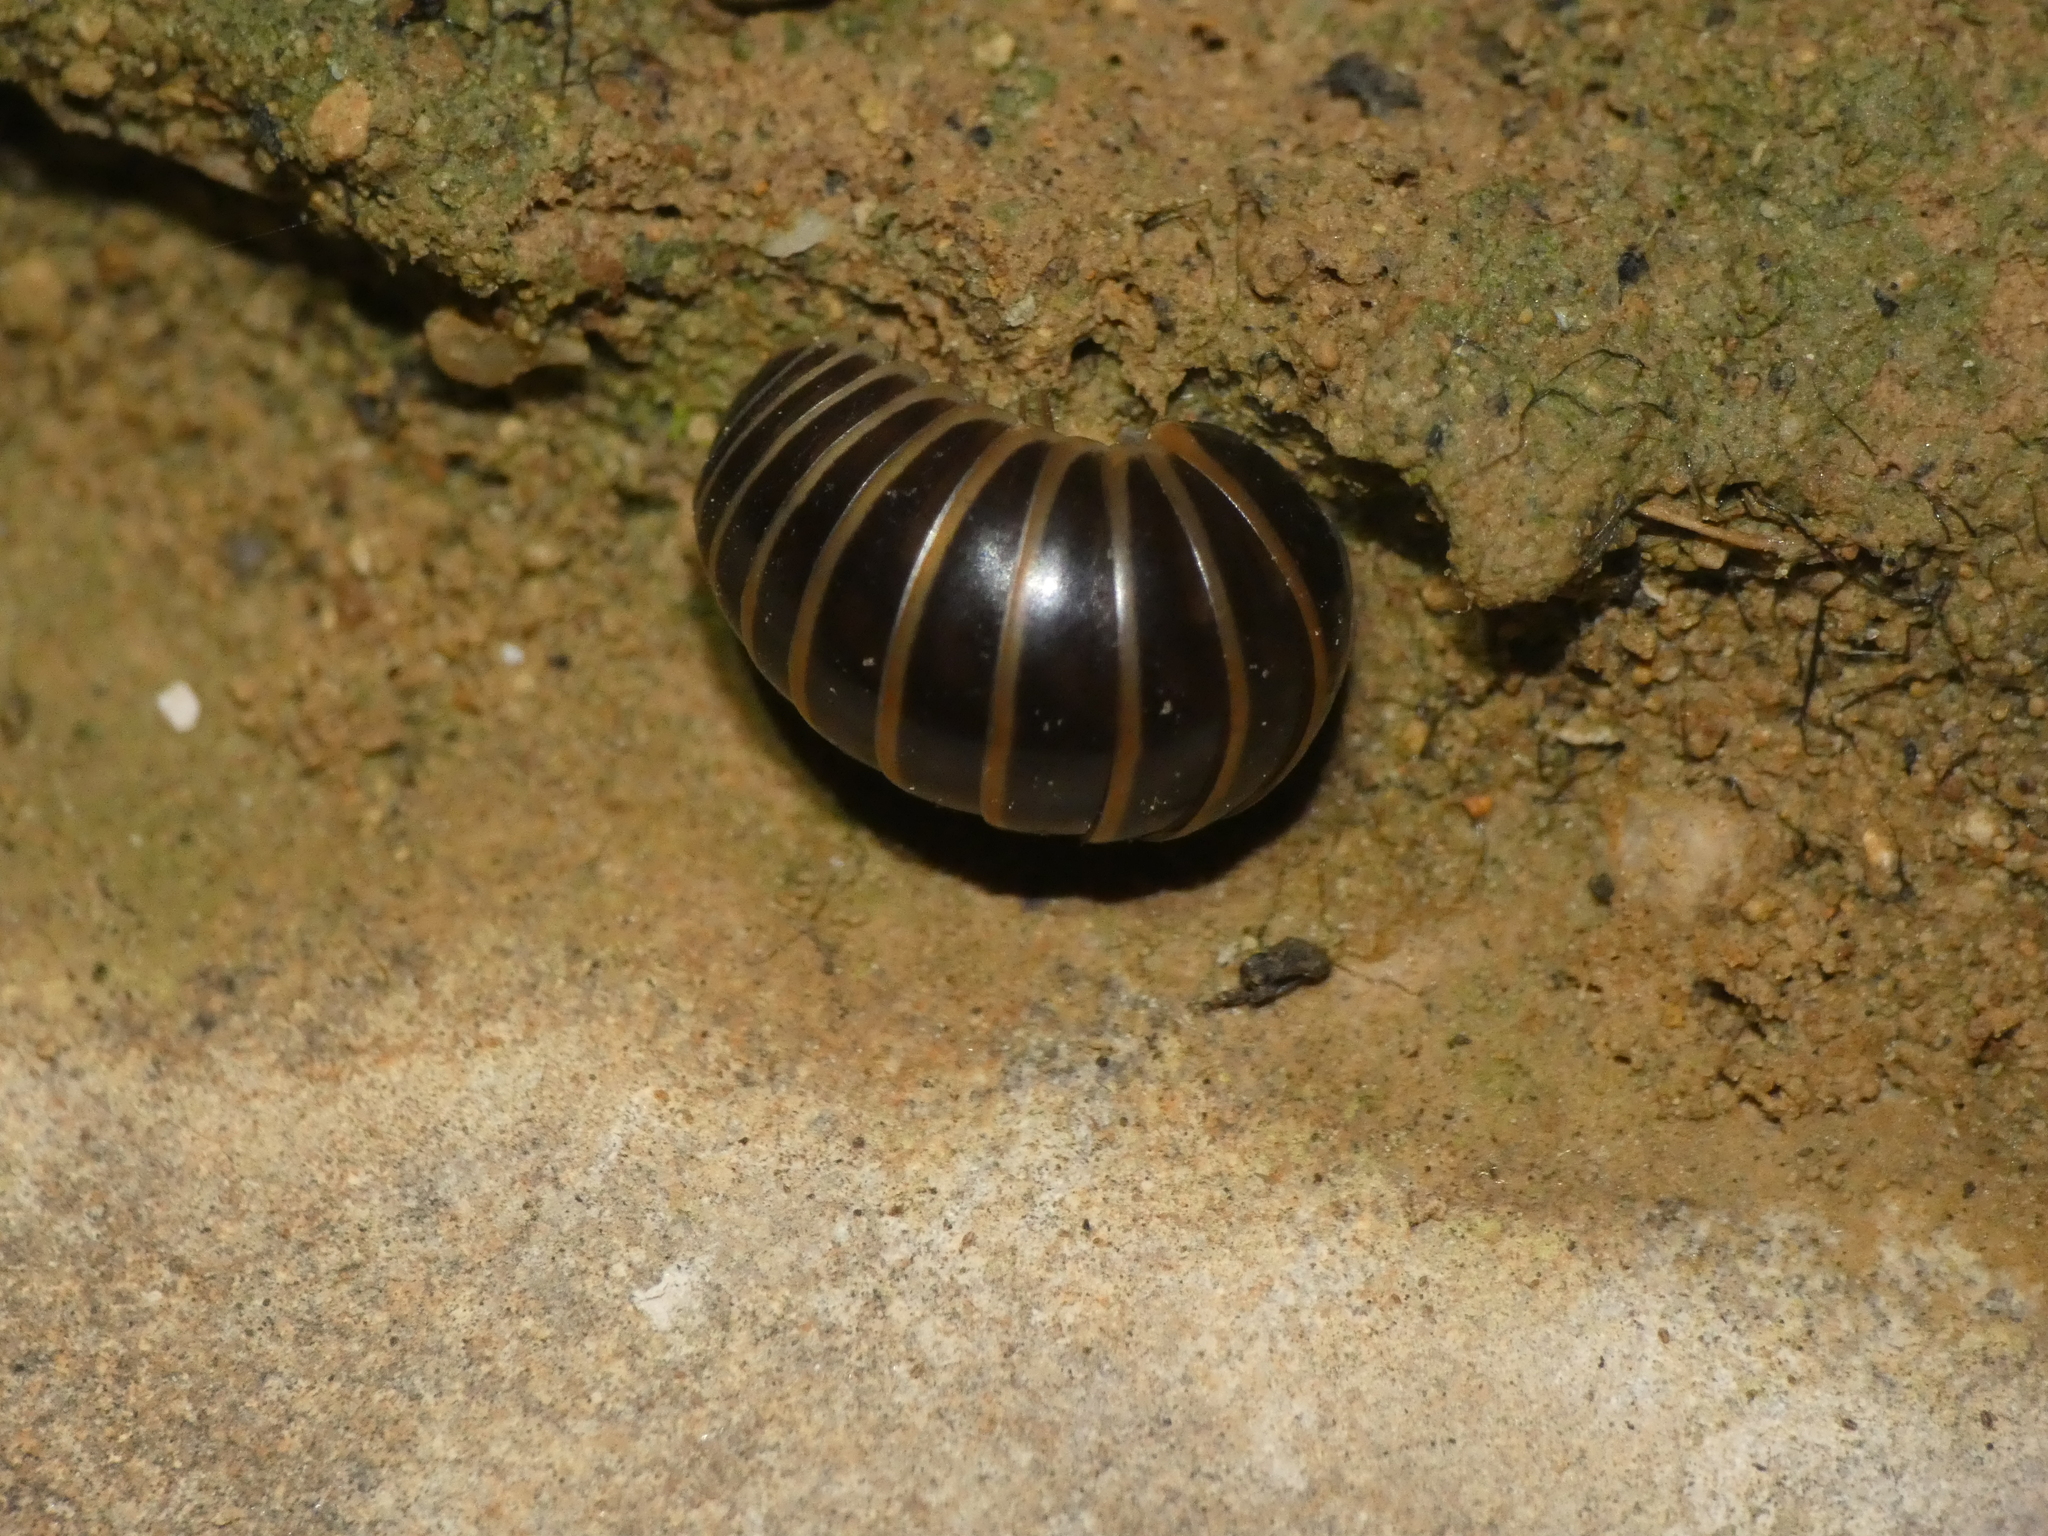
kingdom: Animalia
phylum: Arthropoda
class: Diplopoda
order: Glomerida
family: Glomeridae
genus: Glomeris
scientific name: Glomeris marginata
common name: Bordered pill millipede
